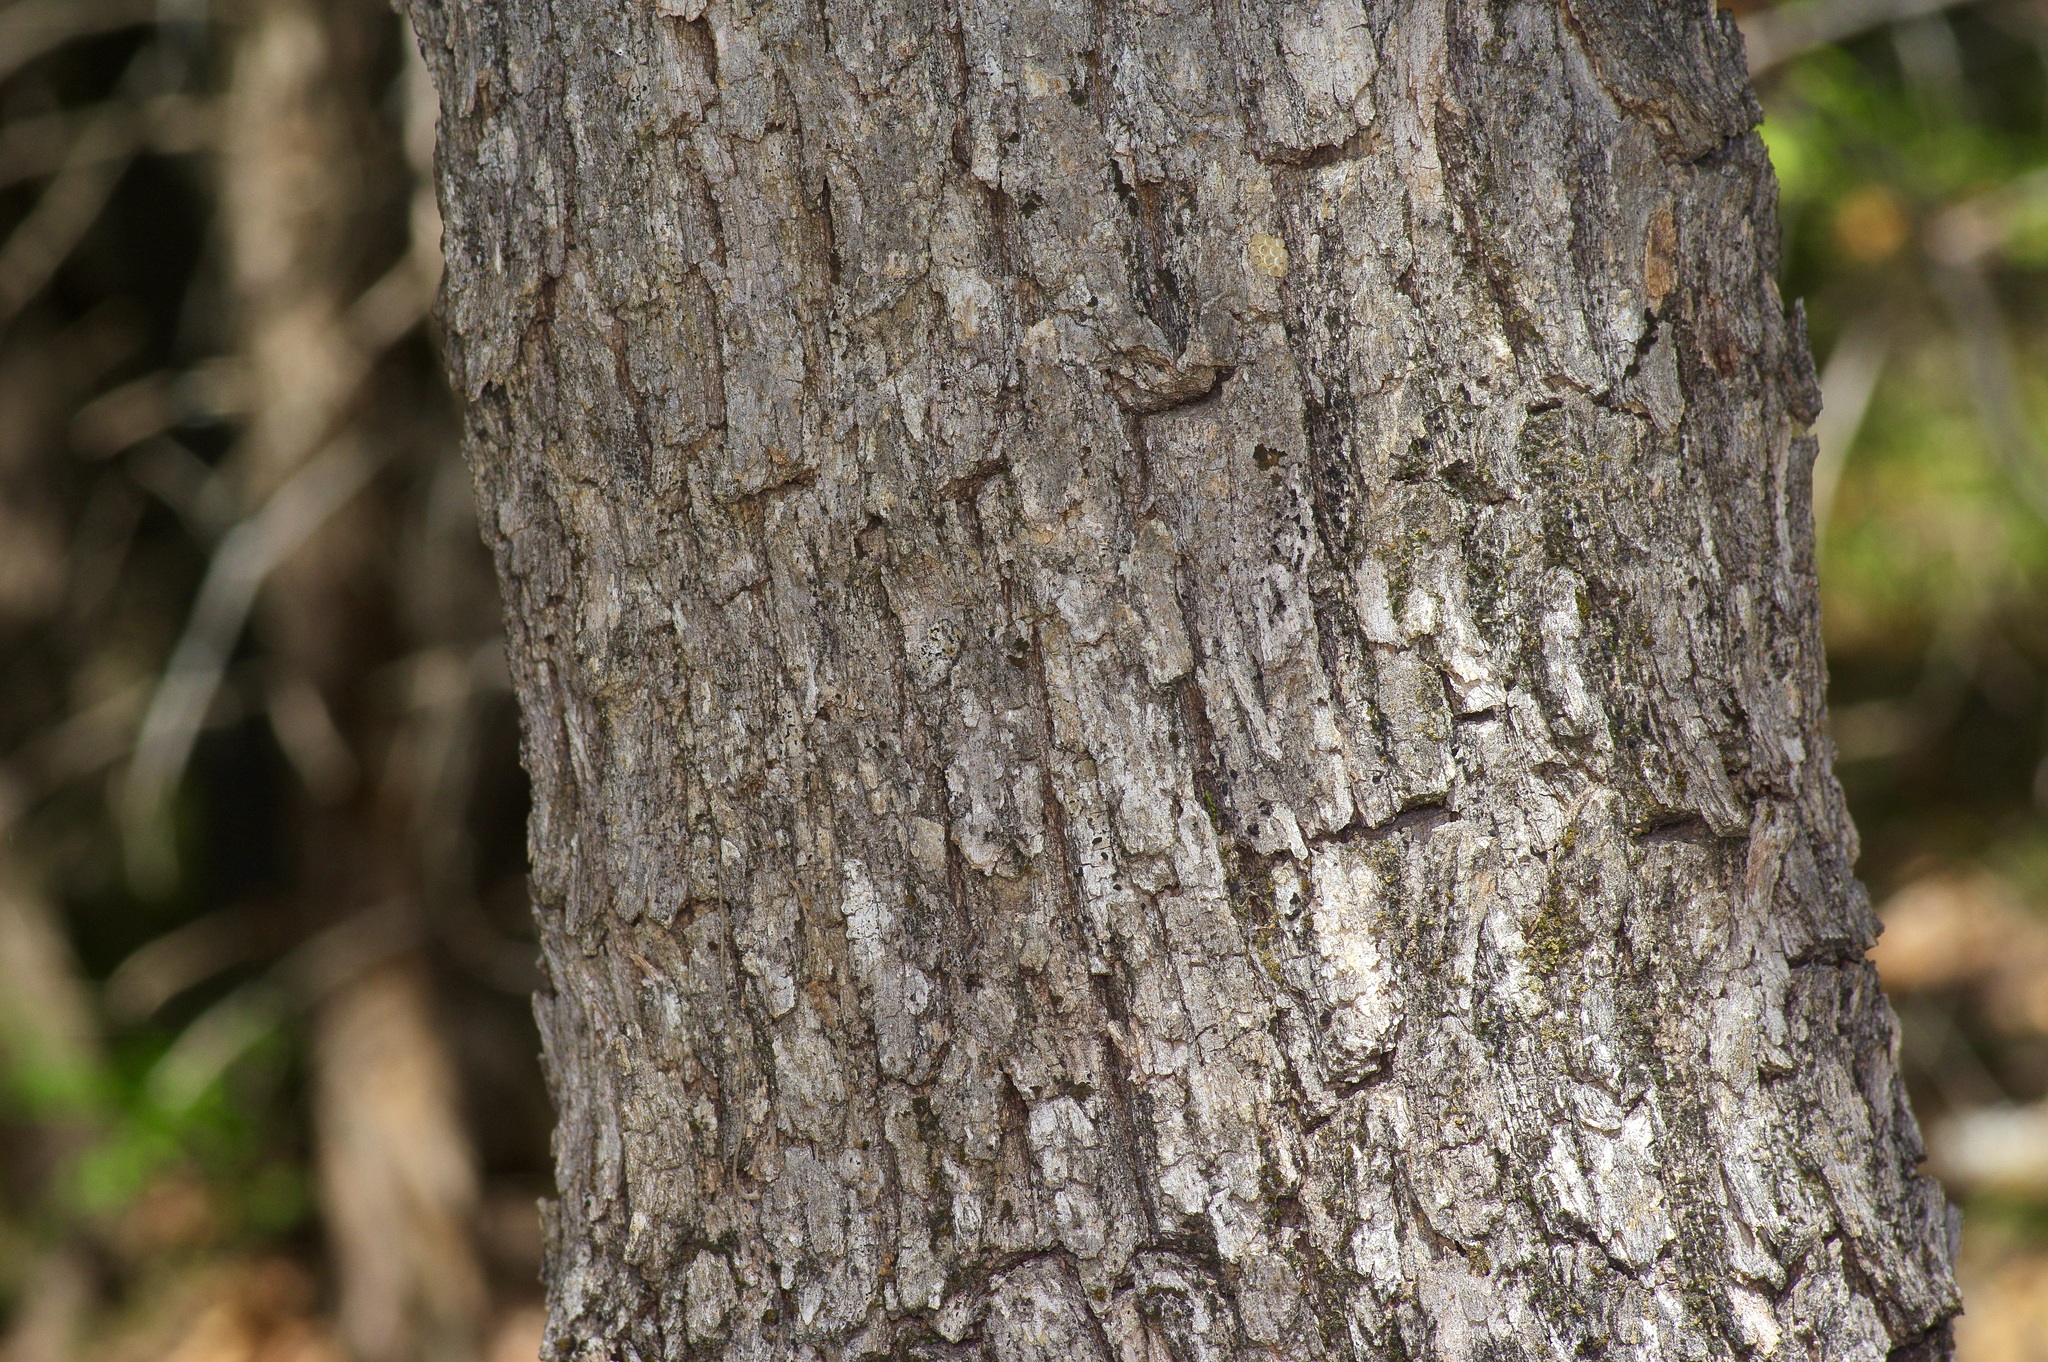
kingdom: Plantae
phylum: Tracheophyta
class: Magnoliopsida
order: Fagales
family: Fagaceae
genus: Quercus
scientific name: Quercus stellata
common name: Post oak
